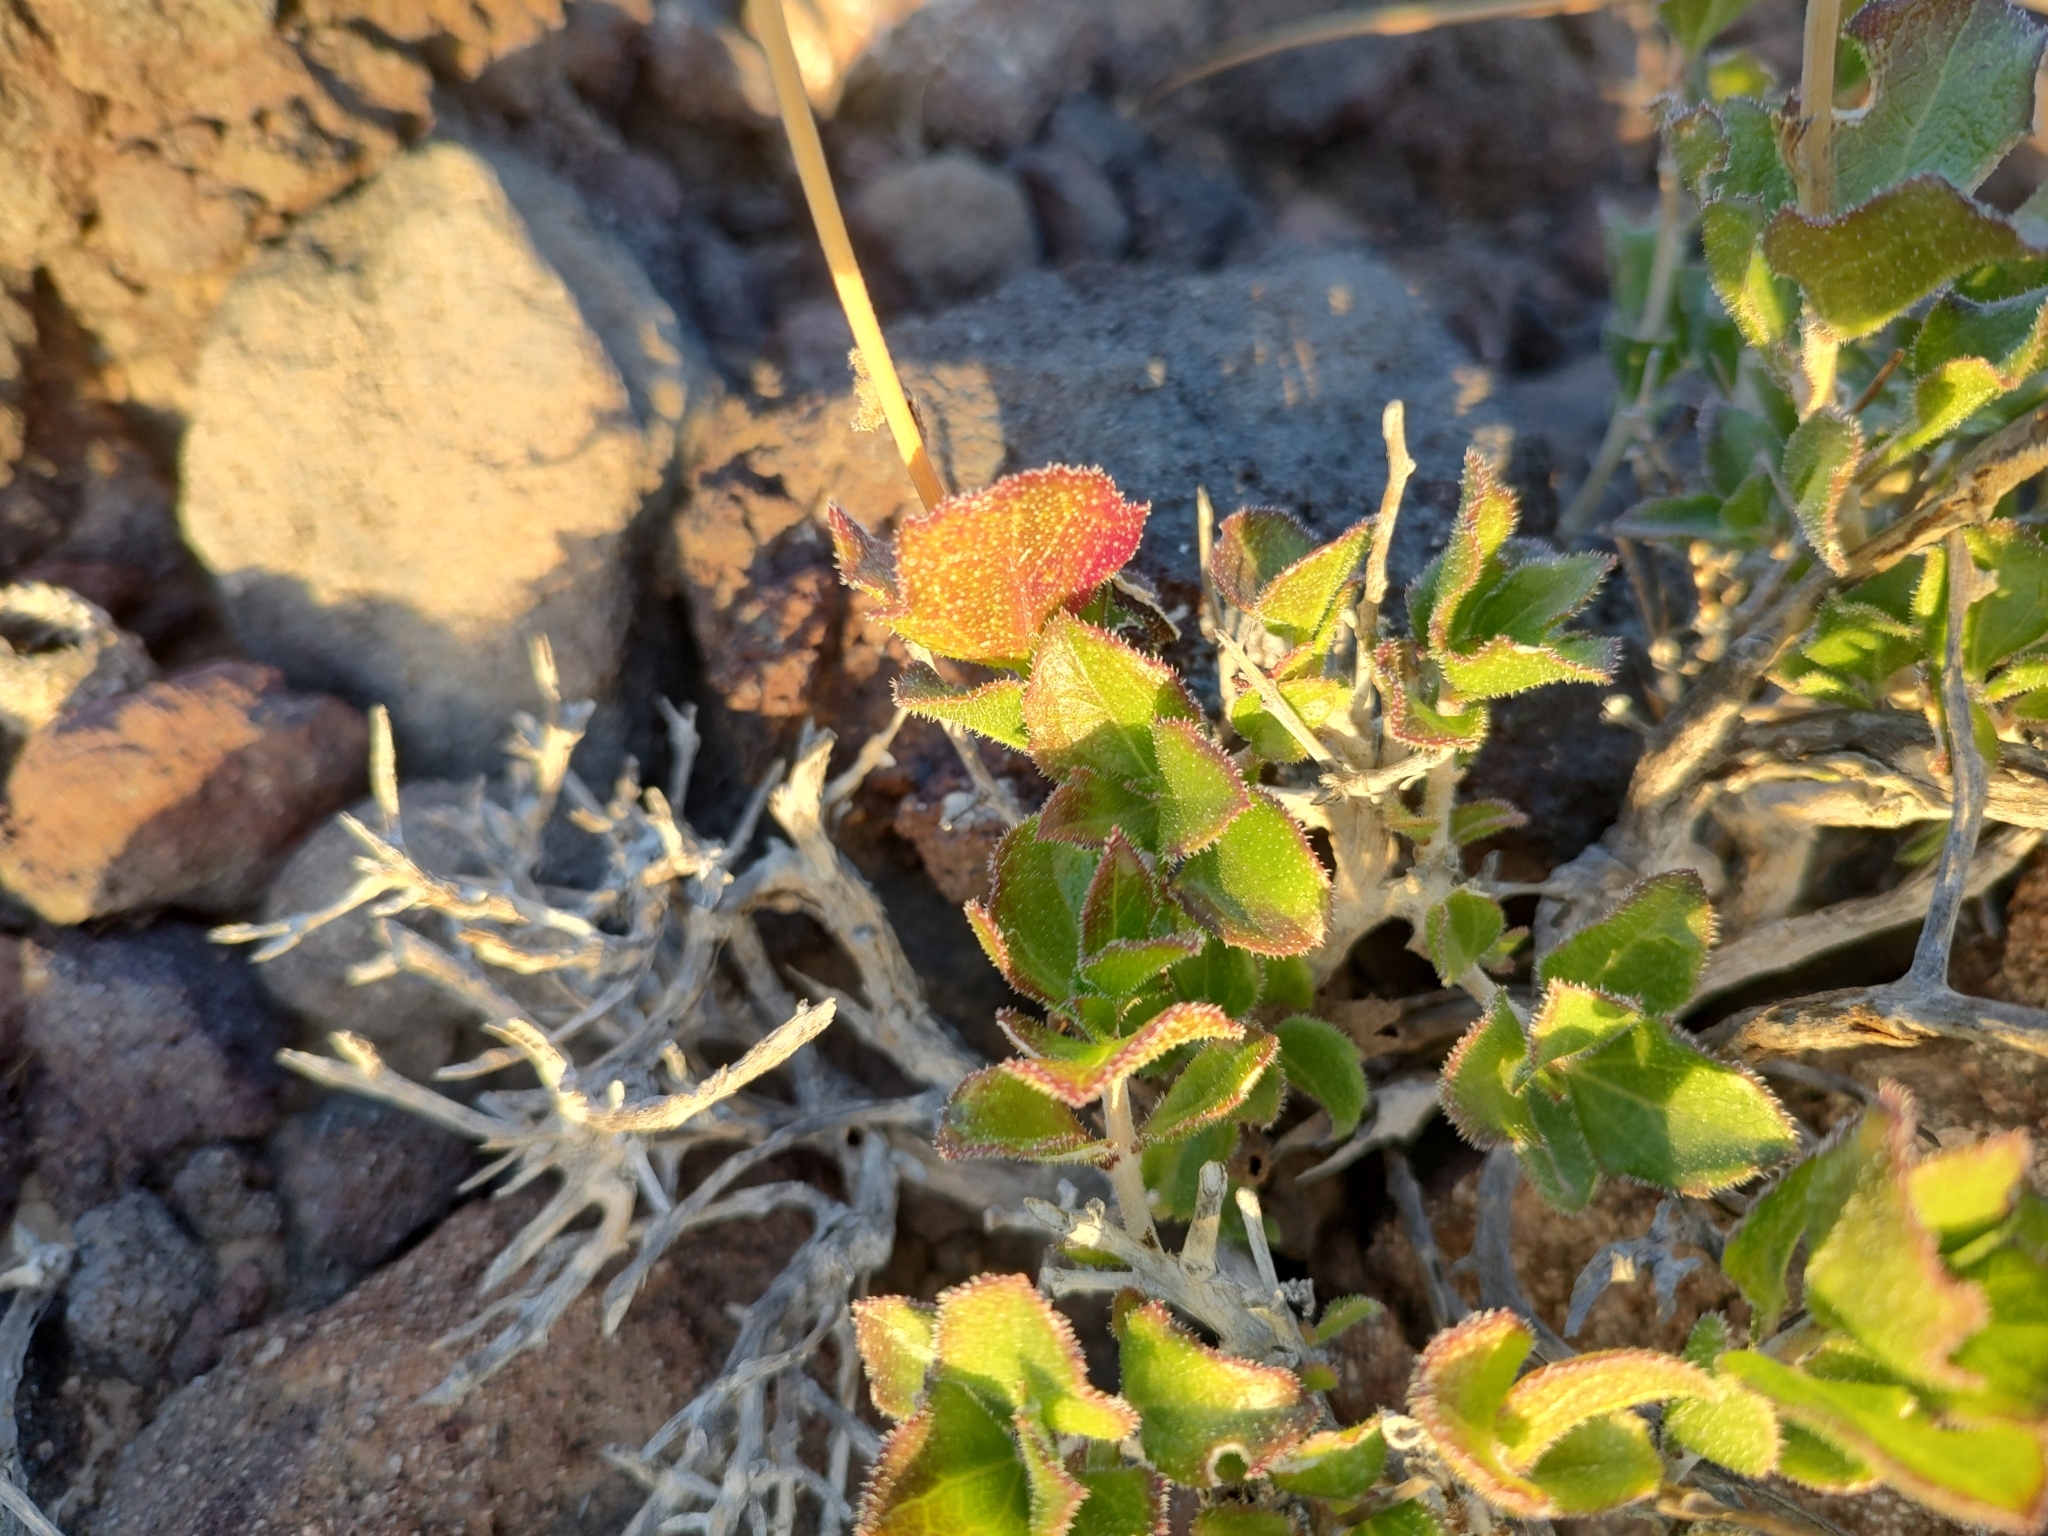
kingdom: Plantae
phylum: Tracheophyta
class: Magnoliopsida
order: Asterales
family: Asteraceae
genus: Encelia
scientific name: Encelia balandra
